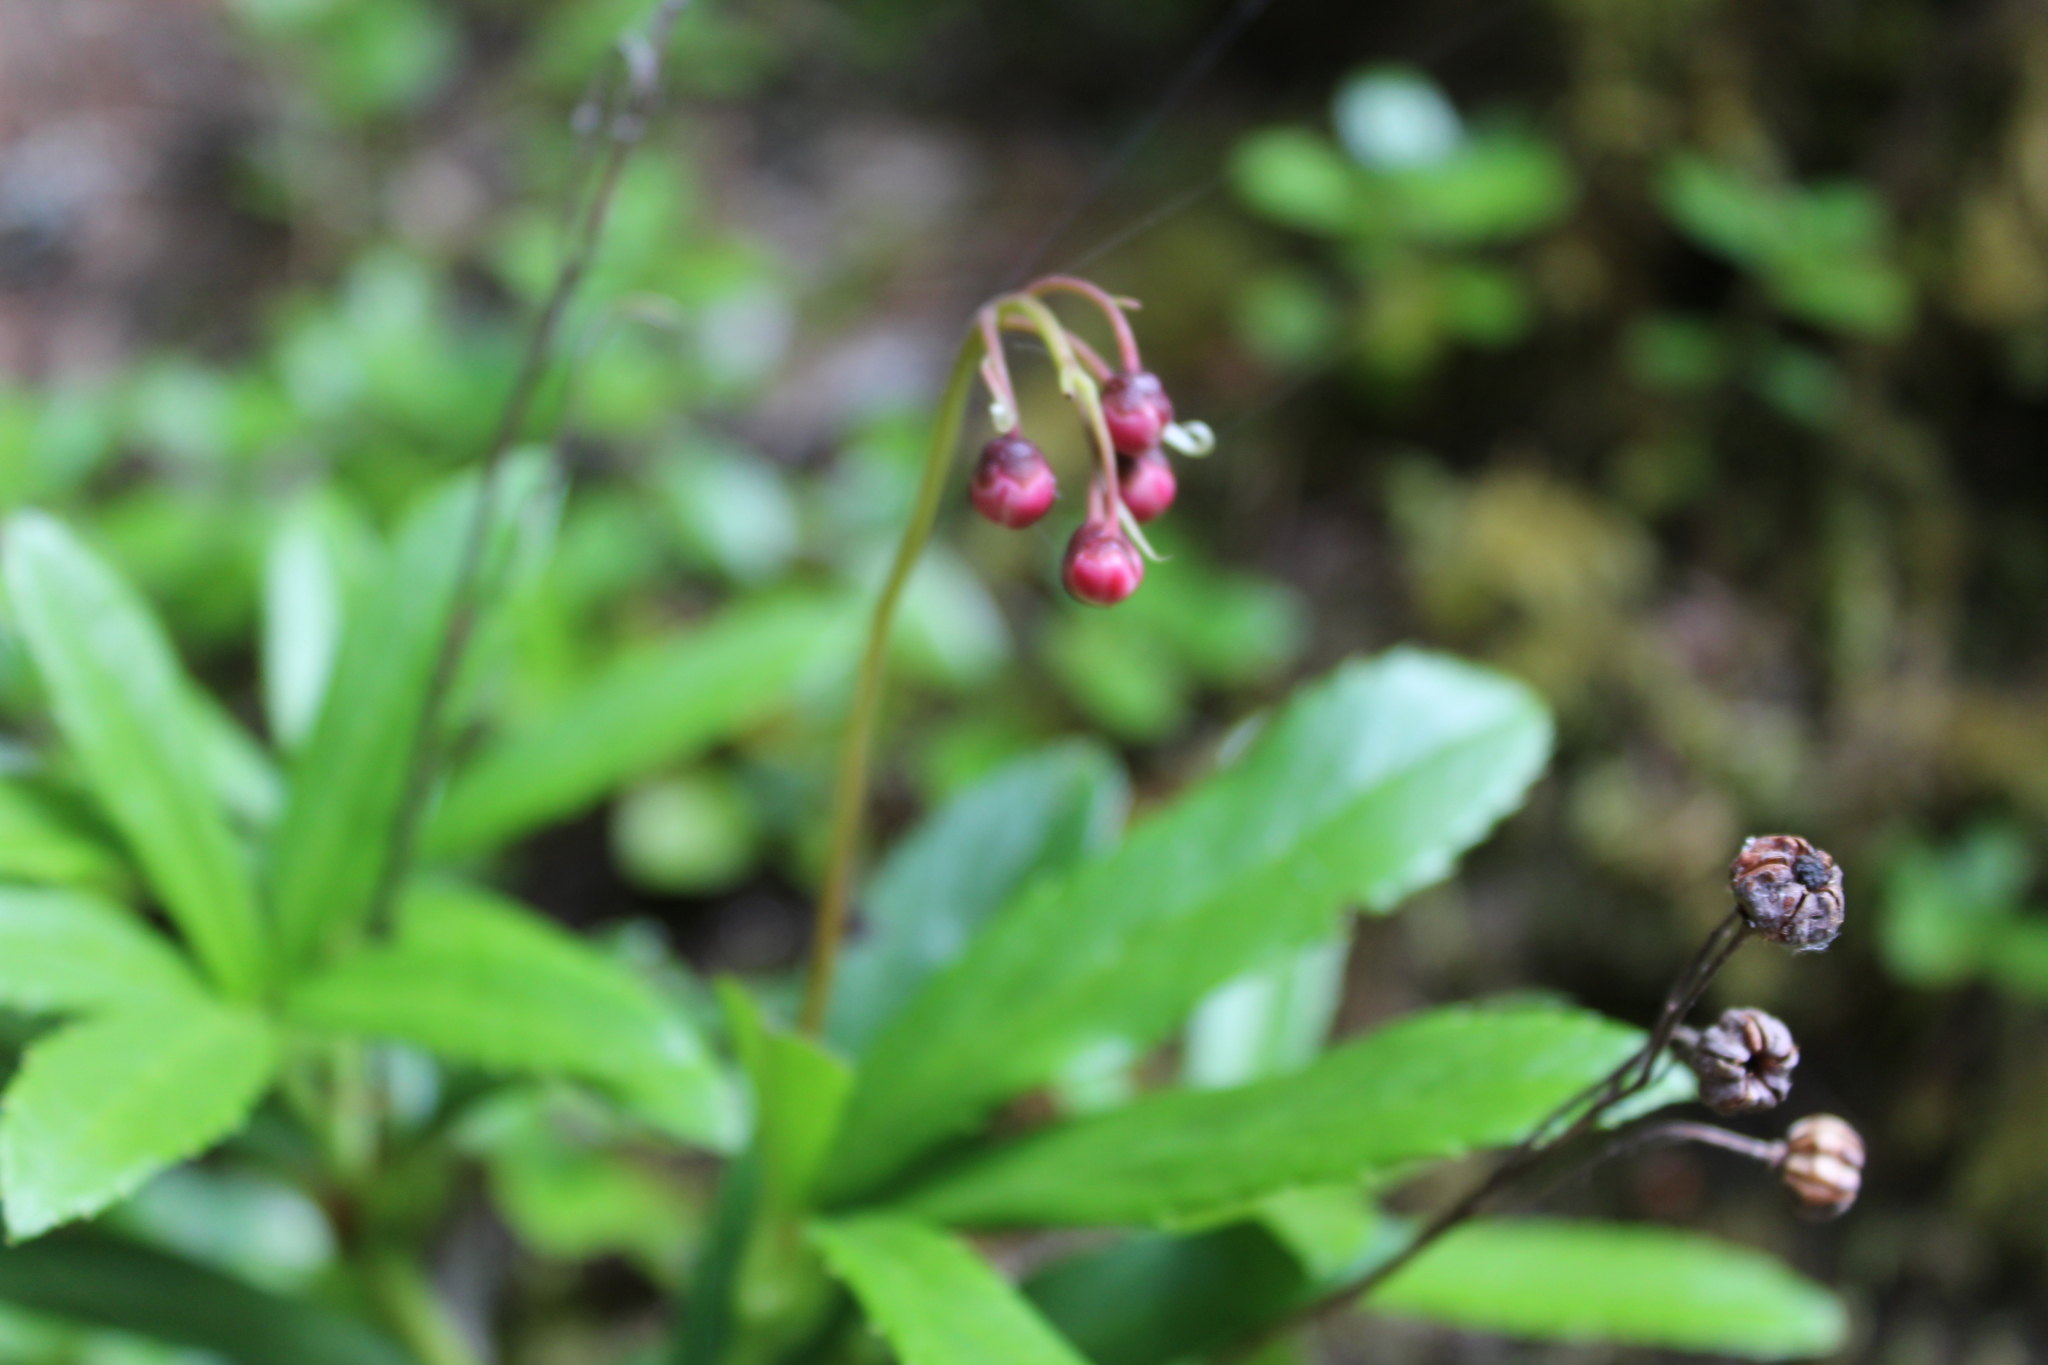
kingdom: Plantae
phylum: Tracheophyta
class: Magnoliopsida
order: Ericales
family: Ericaceae
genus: Chimaphila
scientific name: Chimaphila umbellata
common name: Pipsissewa
